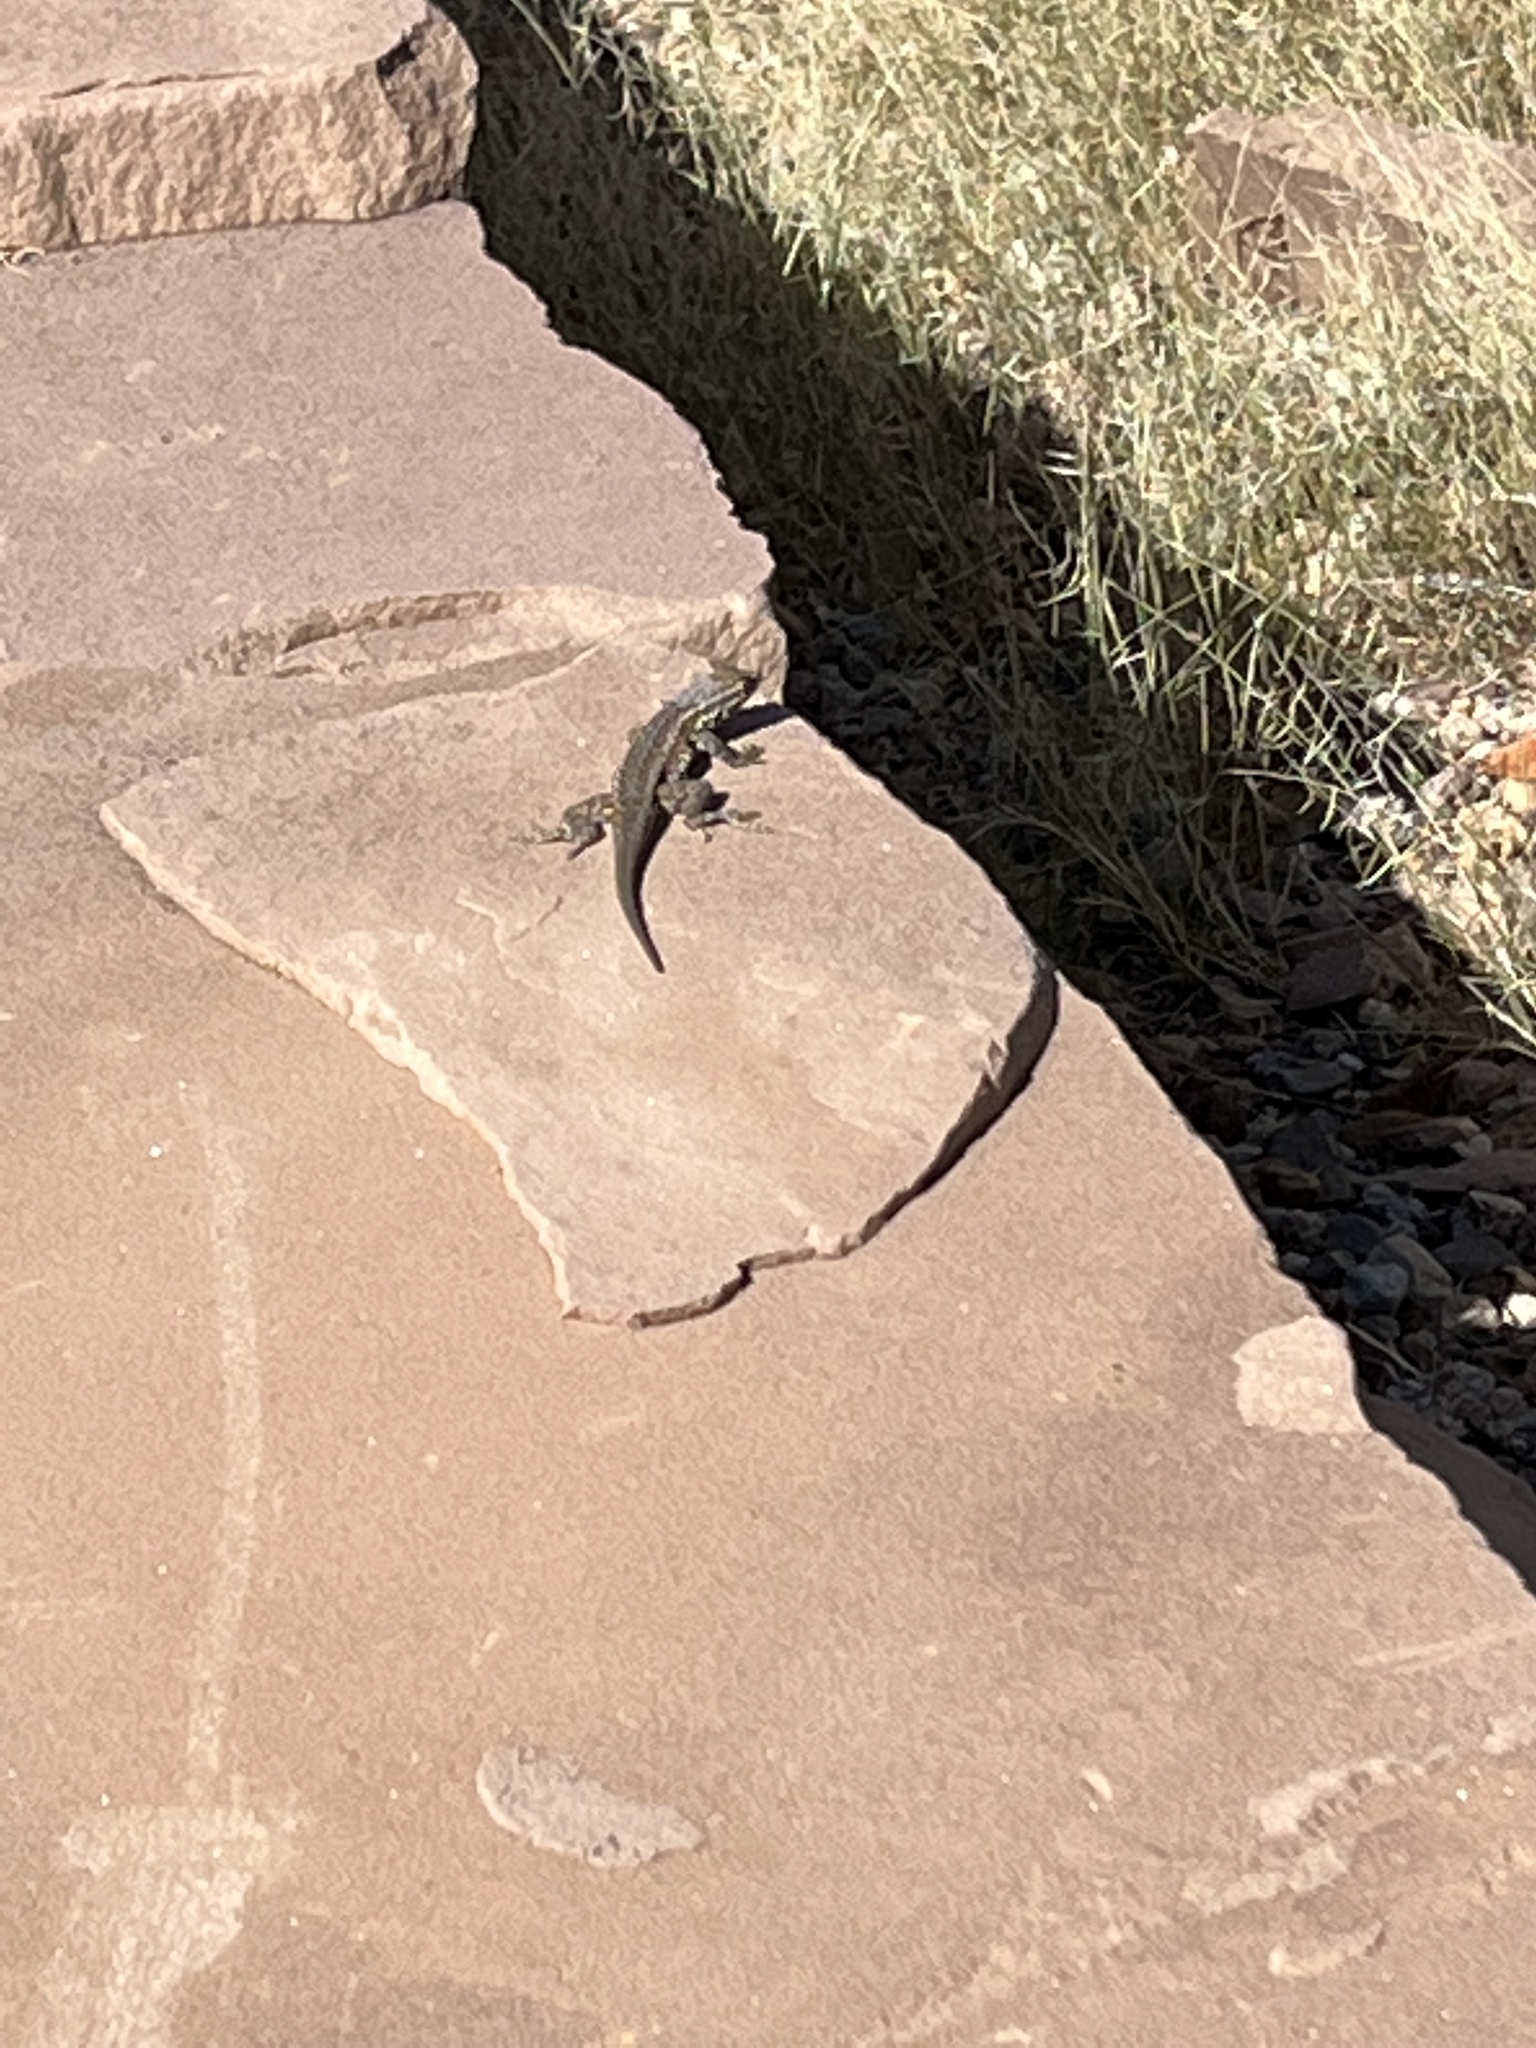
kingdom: Animalia
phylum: Chordata
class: Squamata
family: Phrynosomatidae
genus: Uta
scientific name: Uta stansburiana
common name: Side-blotched lizard
